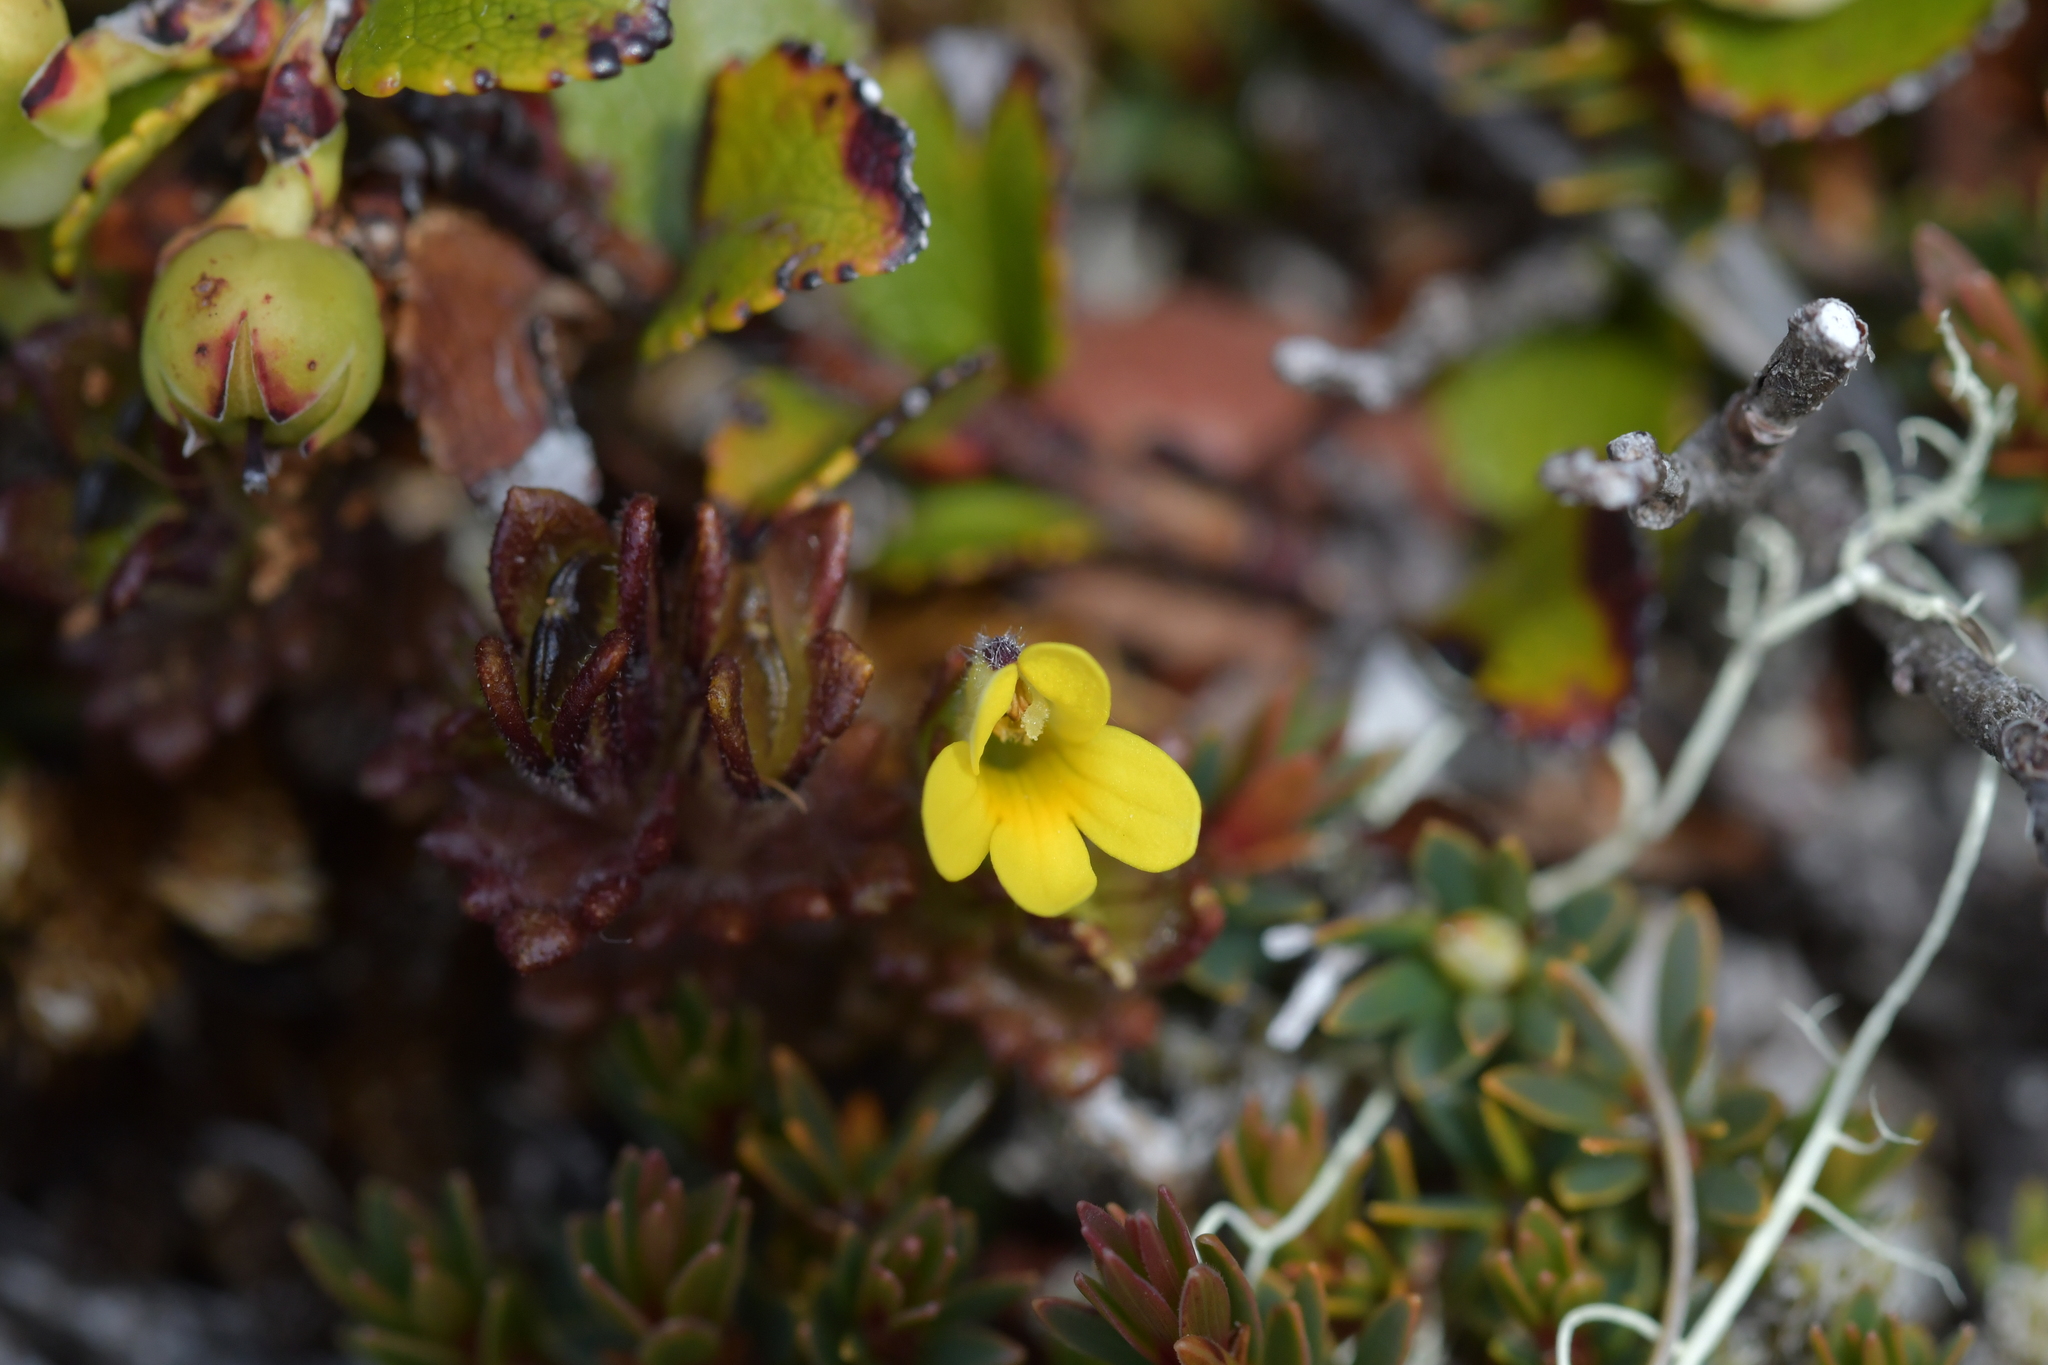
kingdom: Plantae
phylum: Tracheophyta
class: Magnoliopsida
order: Lamiales
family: Orobanchaceae
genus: Euphrasia
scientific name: Euphrasia cockayneana
